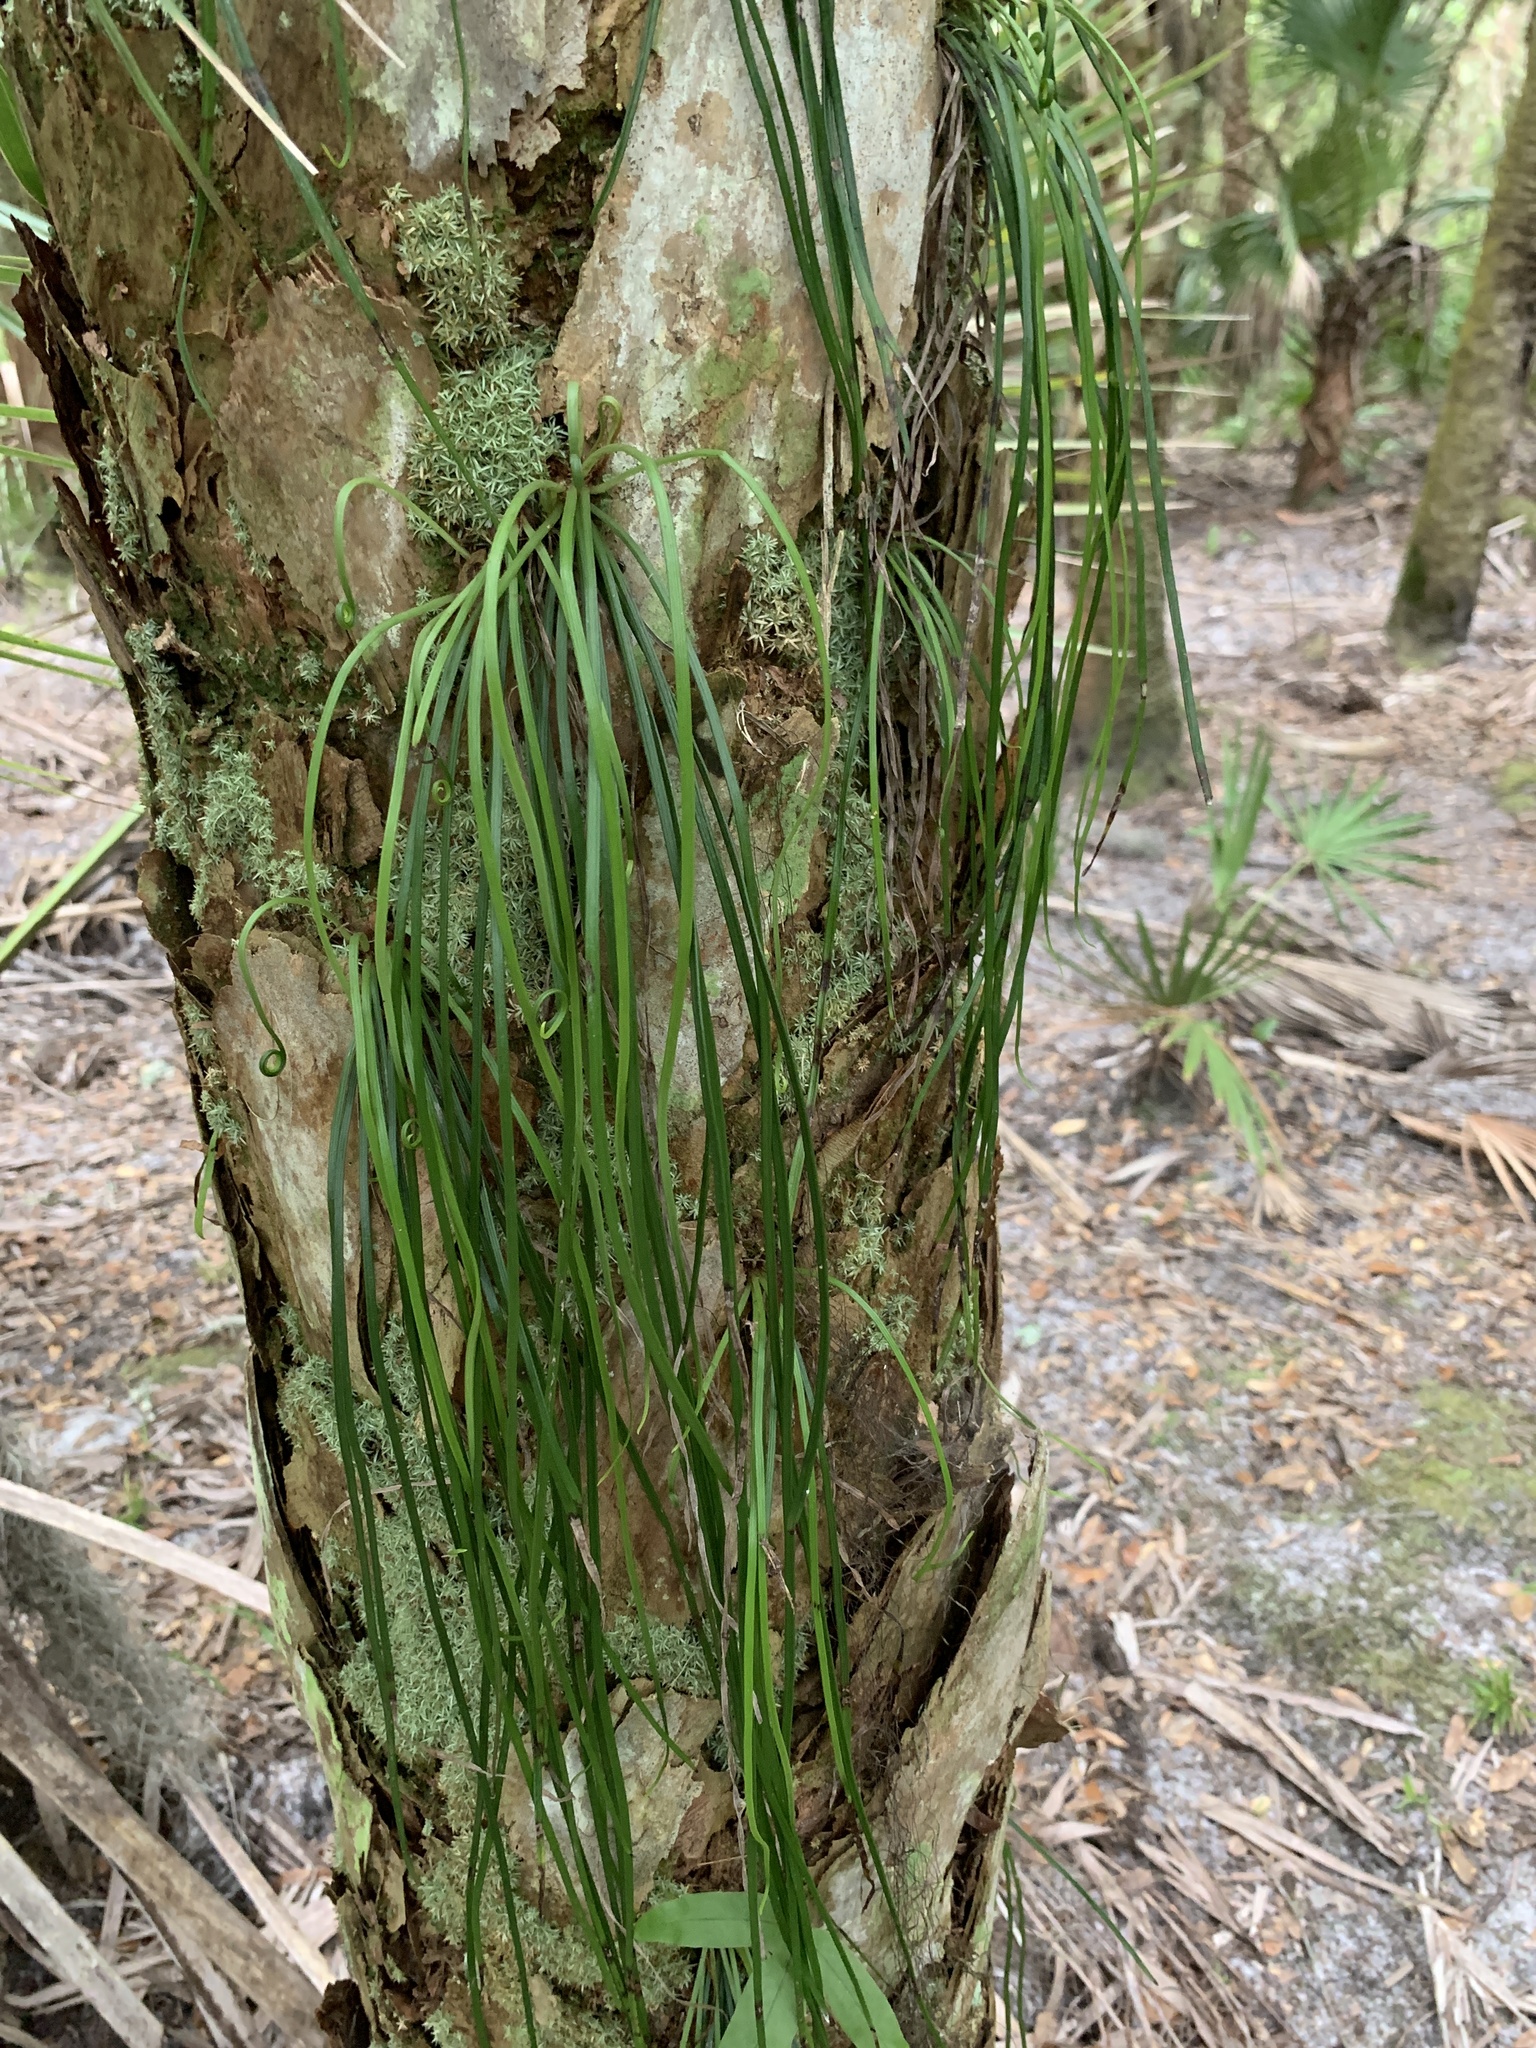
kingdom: Plantae
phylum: Tracheophyta
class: Polypodiopsida
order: Polypodiales
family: Pteridaceae
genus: Vittaria
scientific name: Vittaria lineata
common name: Shoestring fern
